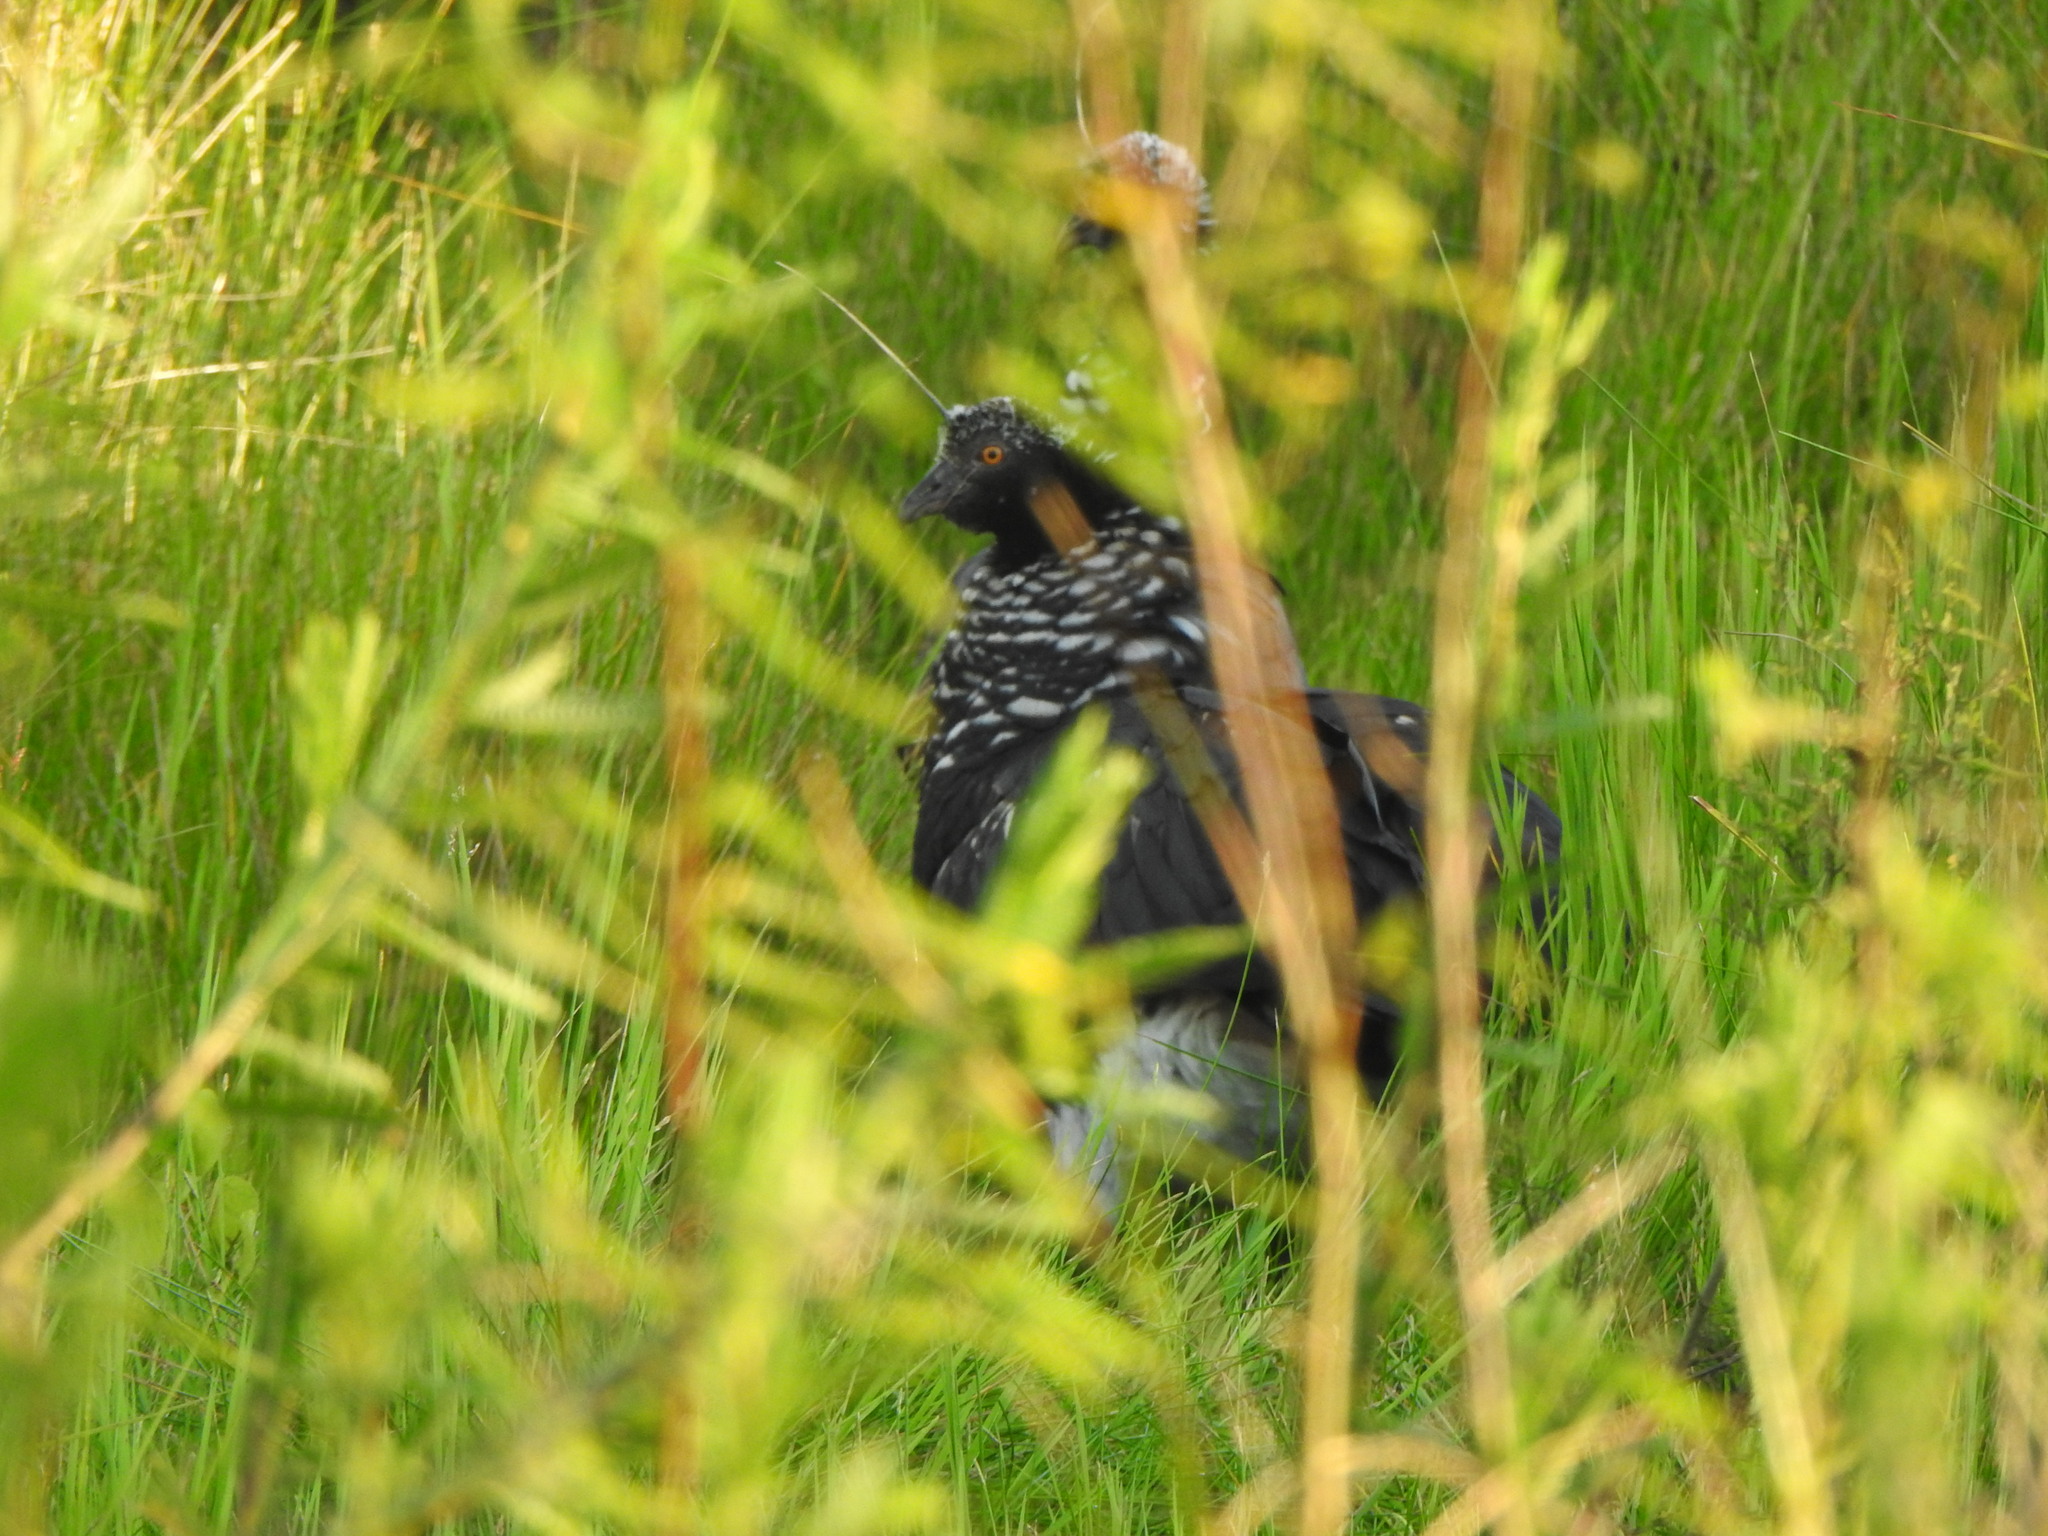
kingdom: Animalia
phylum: Chordata
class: Aves
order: Anseriformes
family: Anhimidae
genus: Anhima
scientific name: Anhima cornuta
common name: Horned screamer
